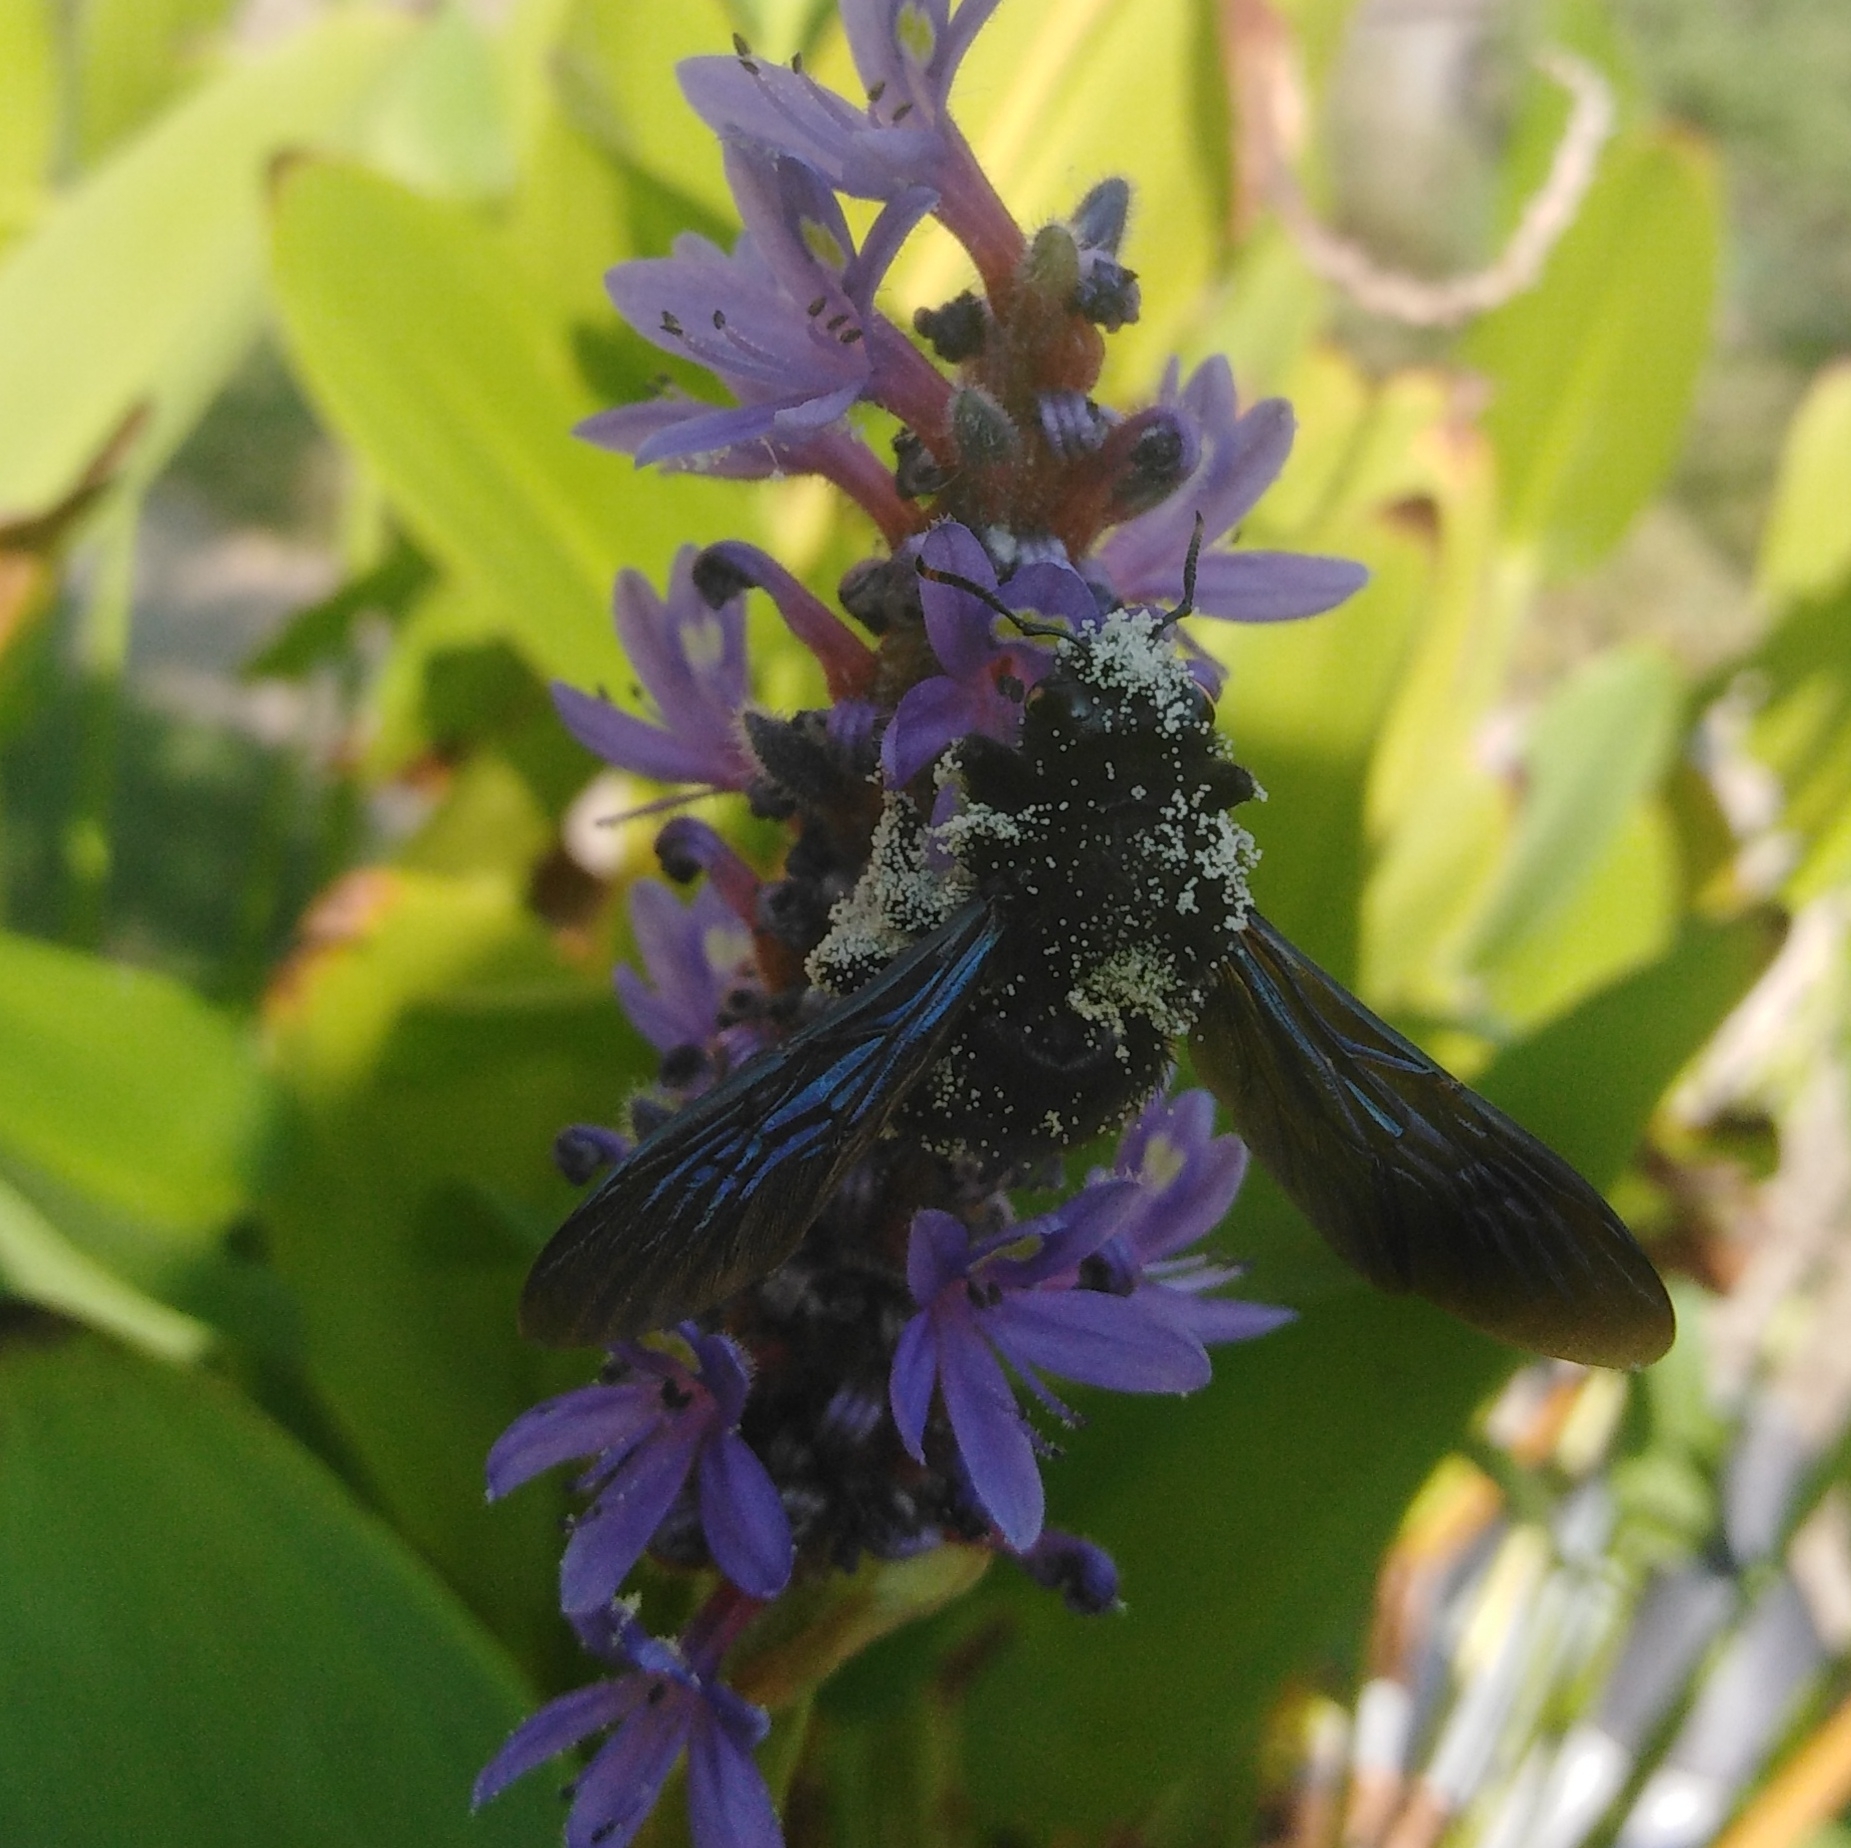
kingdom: Animalia
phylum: Arthropoda
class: Insecta
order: Hymenoptera
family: Apidae
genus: Xylocopa
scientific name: Xylocopa violacea
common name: Violet carpenter bee
